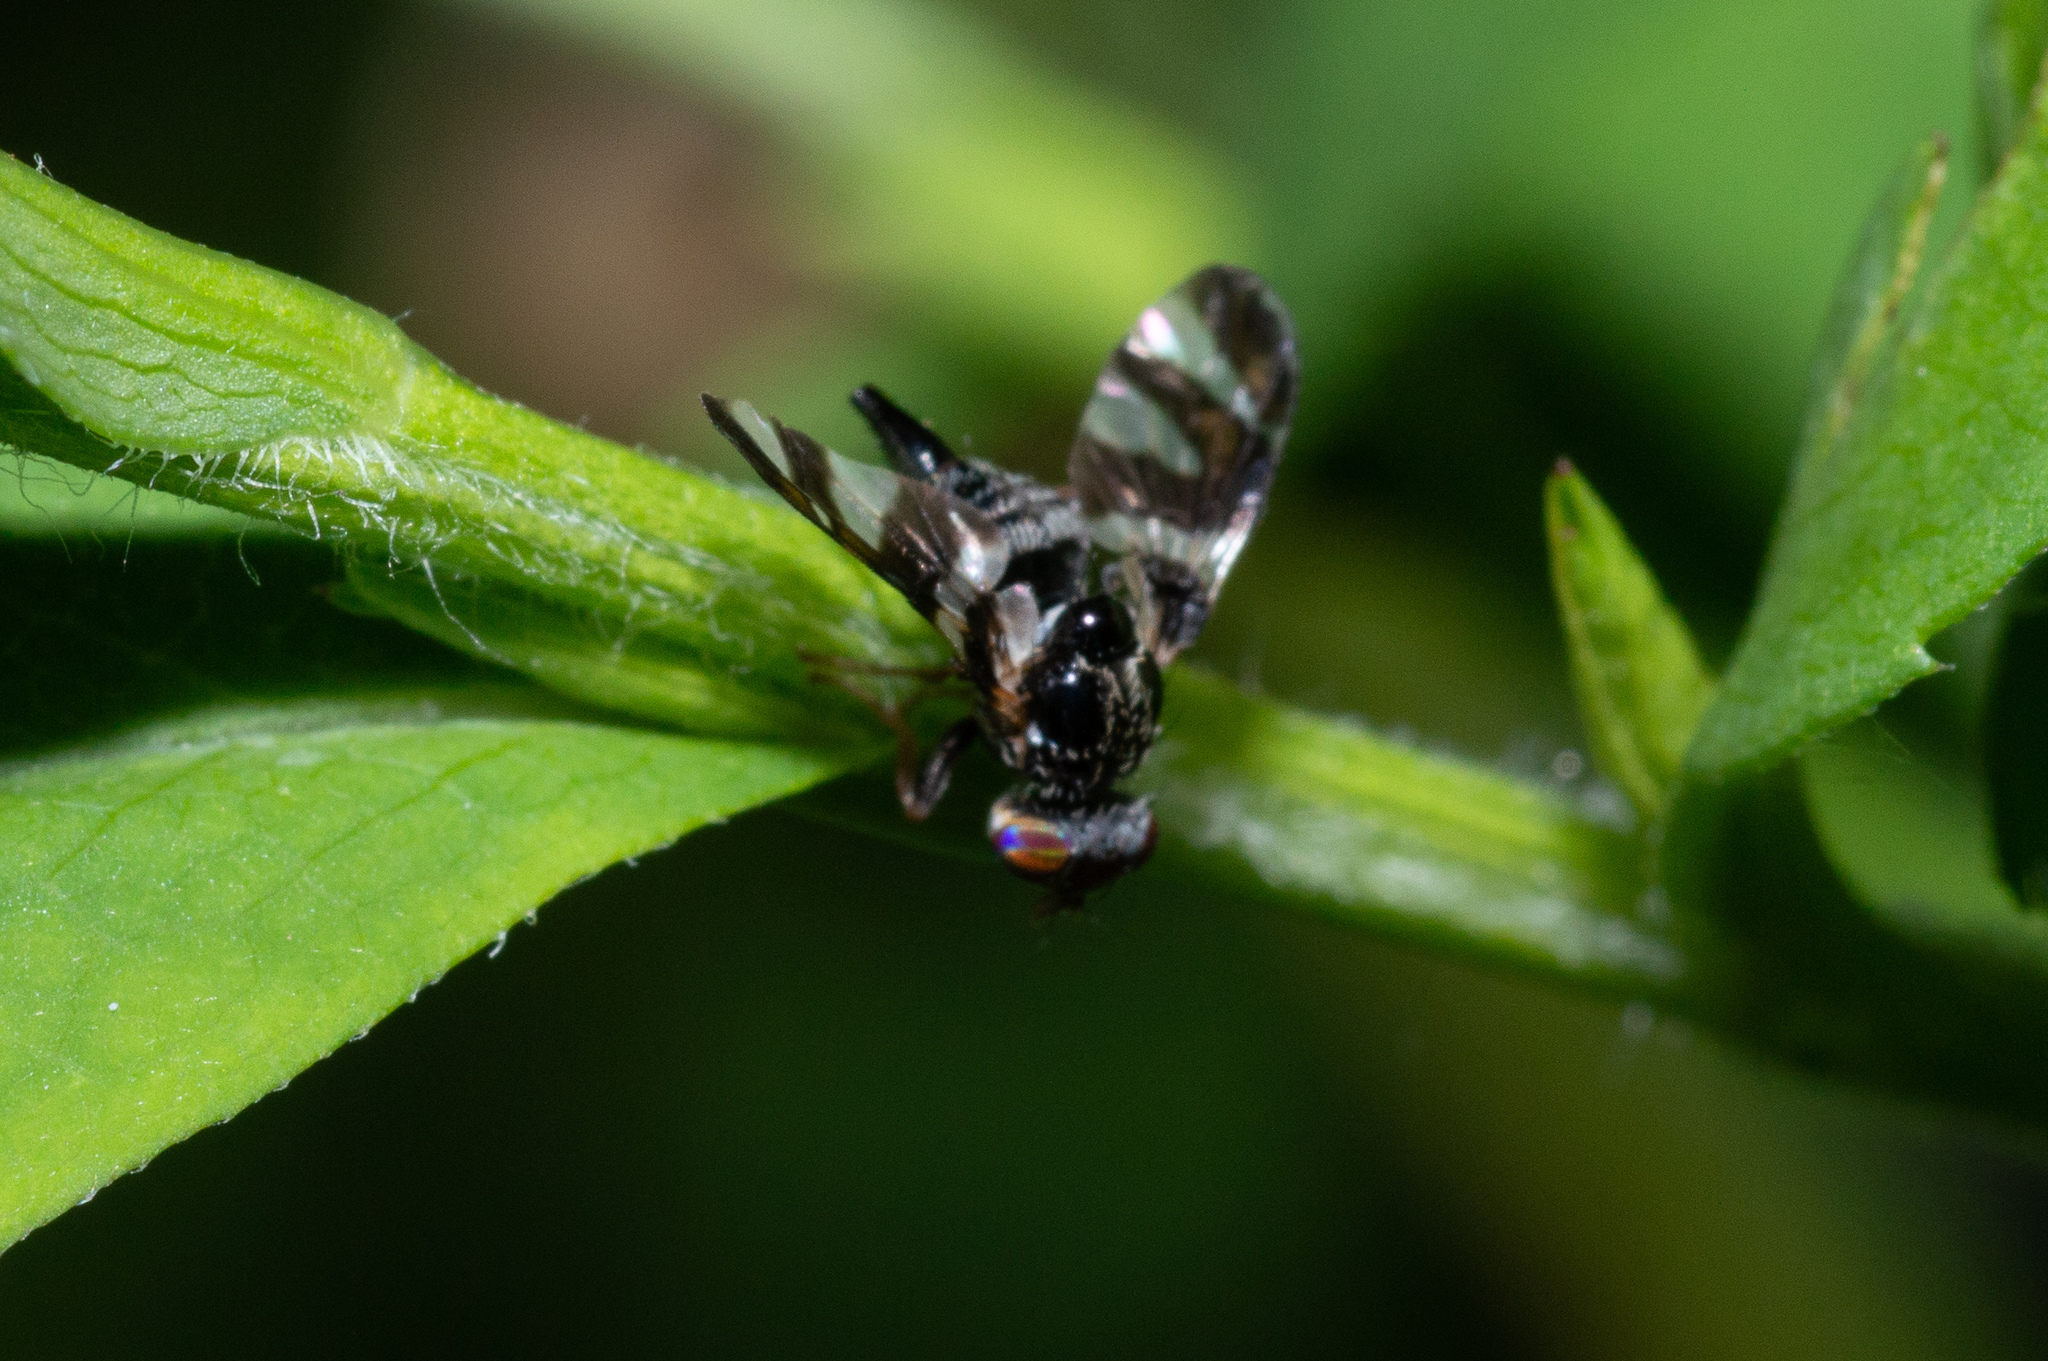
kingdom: Animalia
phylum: Arthropoda
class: Insecta
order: Diptera
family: Tephritidae
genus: Procecidochares
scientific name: Procecidochares atra
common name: Goldenrod brussels sprout gall fly
